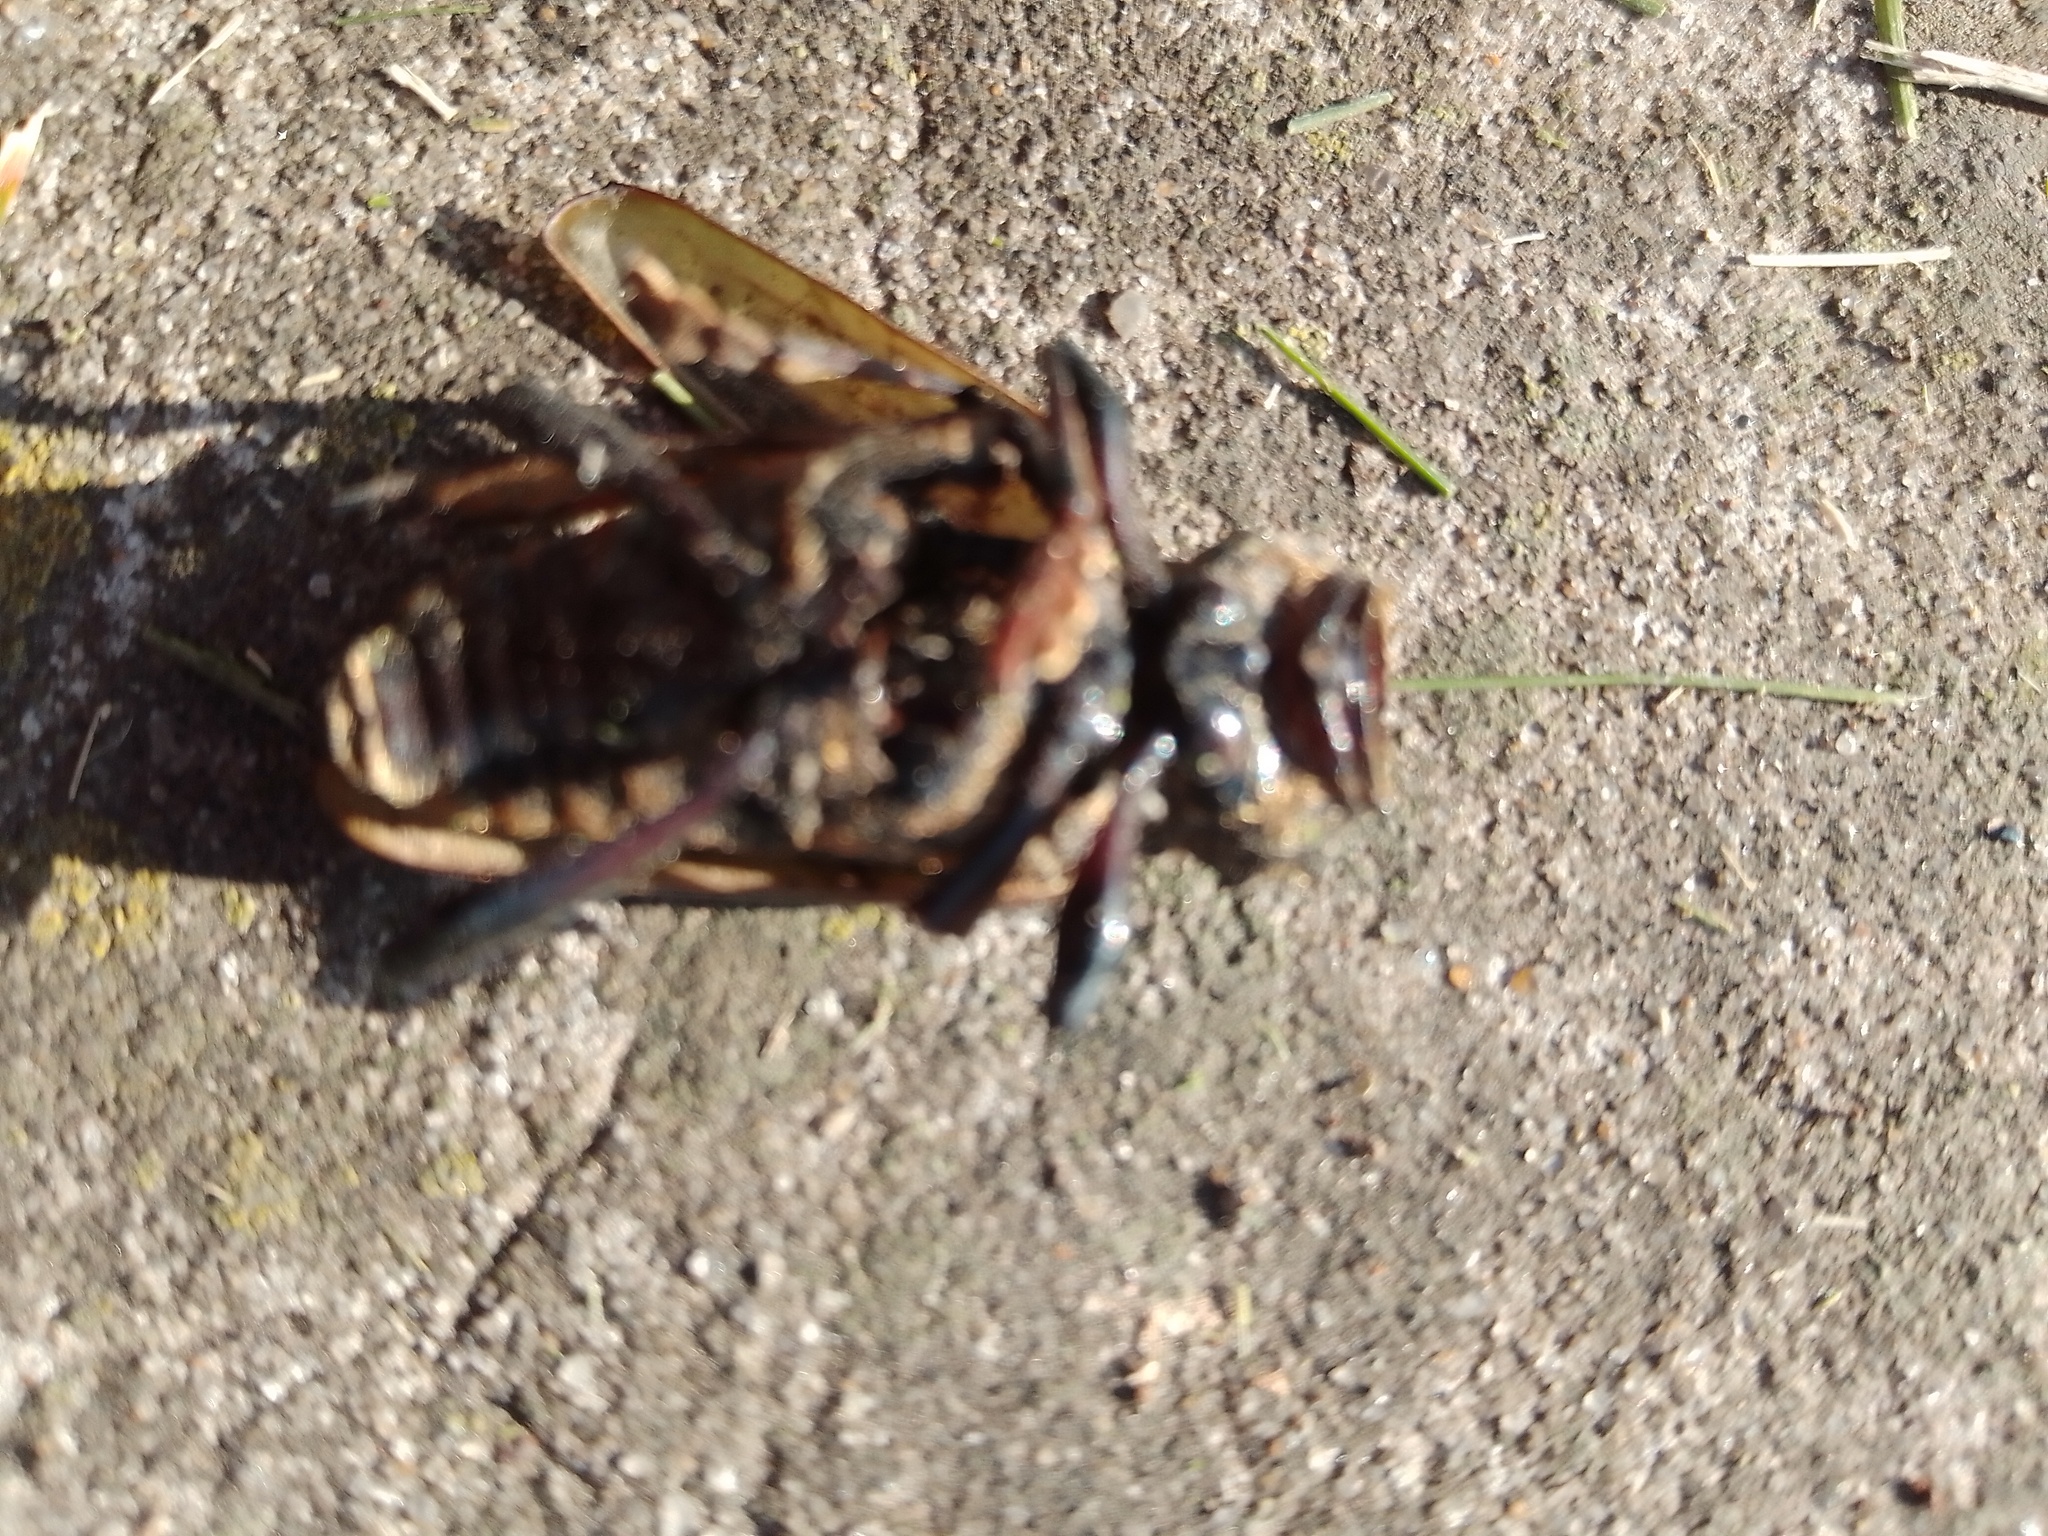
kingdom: Animalia
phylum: Arthropoda
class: Insecta
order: Coleoptera
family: Cerambycidae
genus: Retrachydes
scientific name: Retrachydes thoracicus
